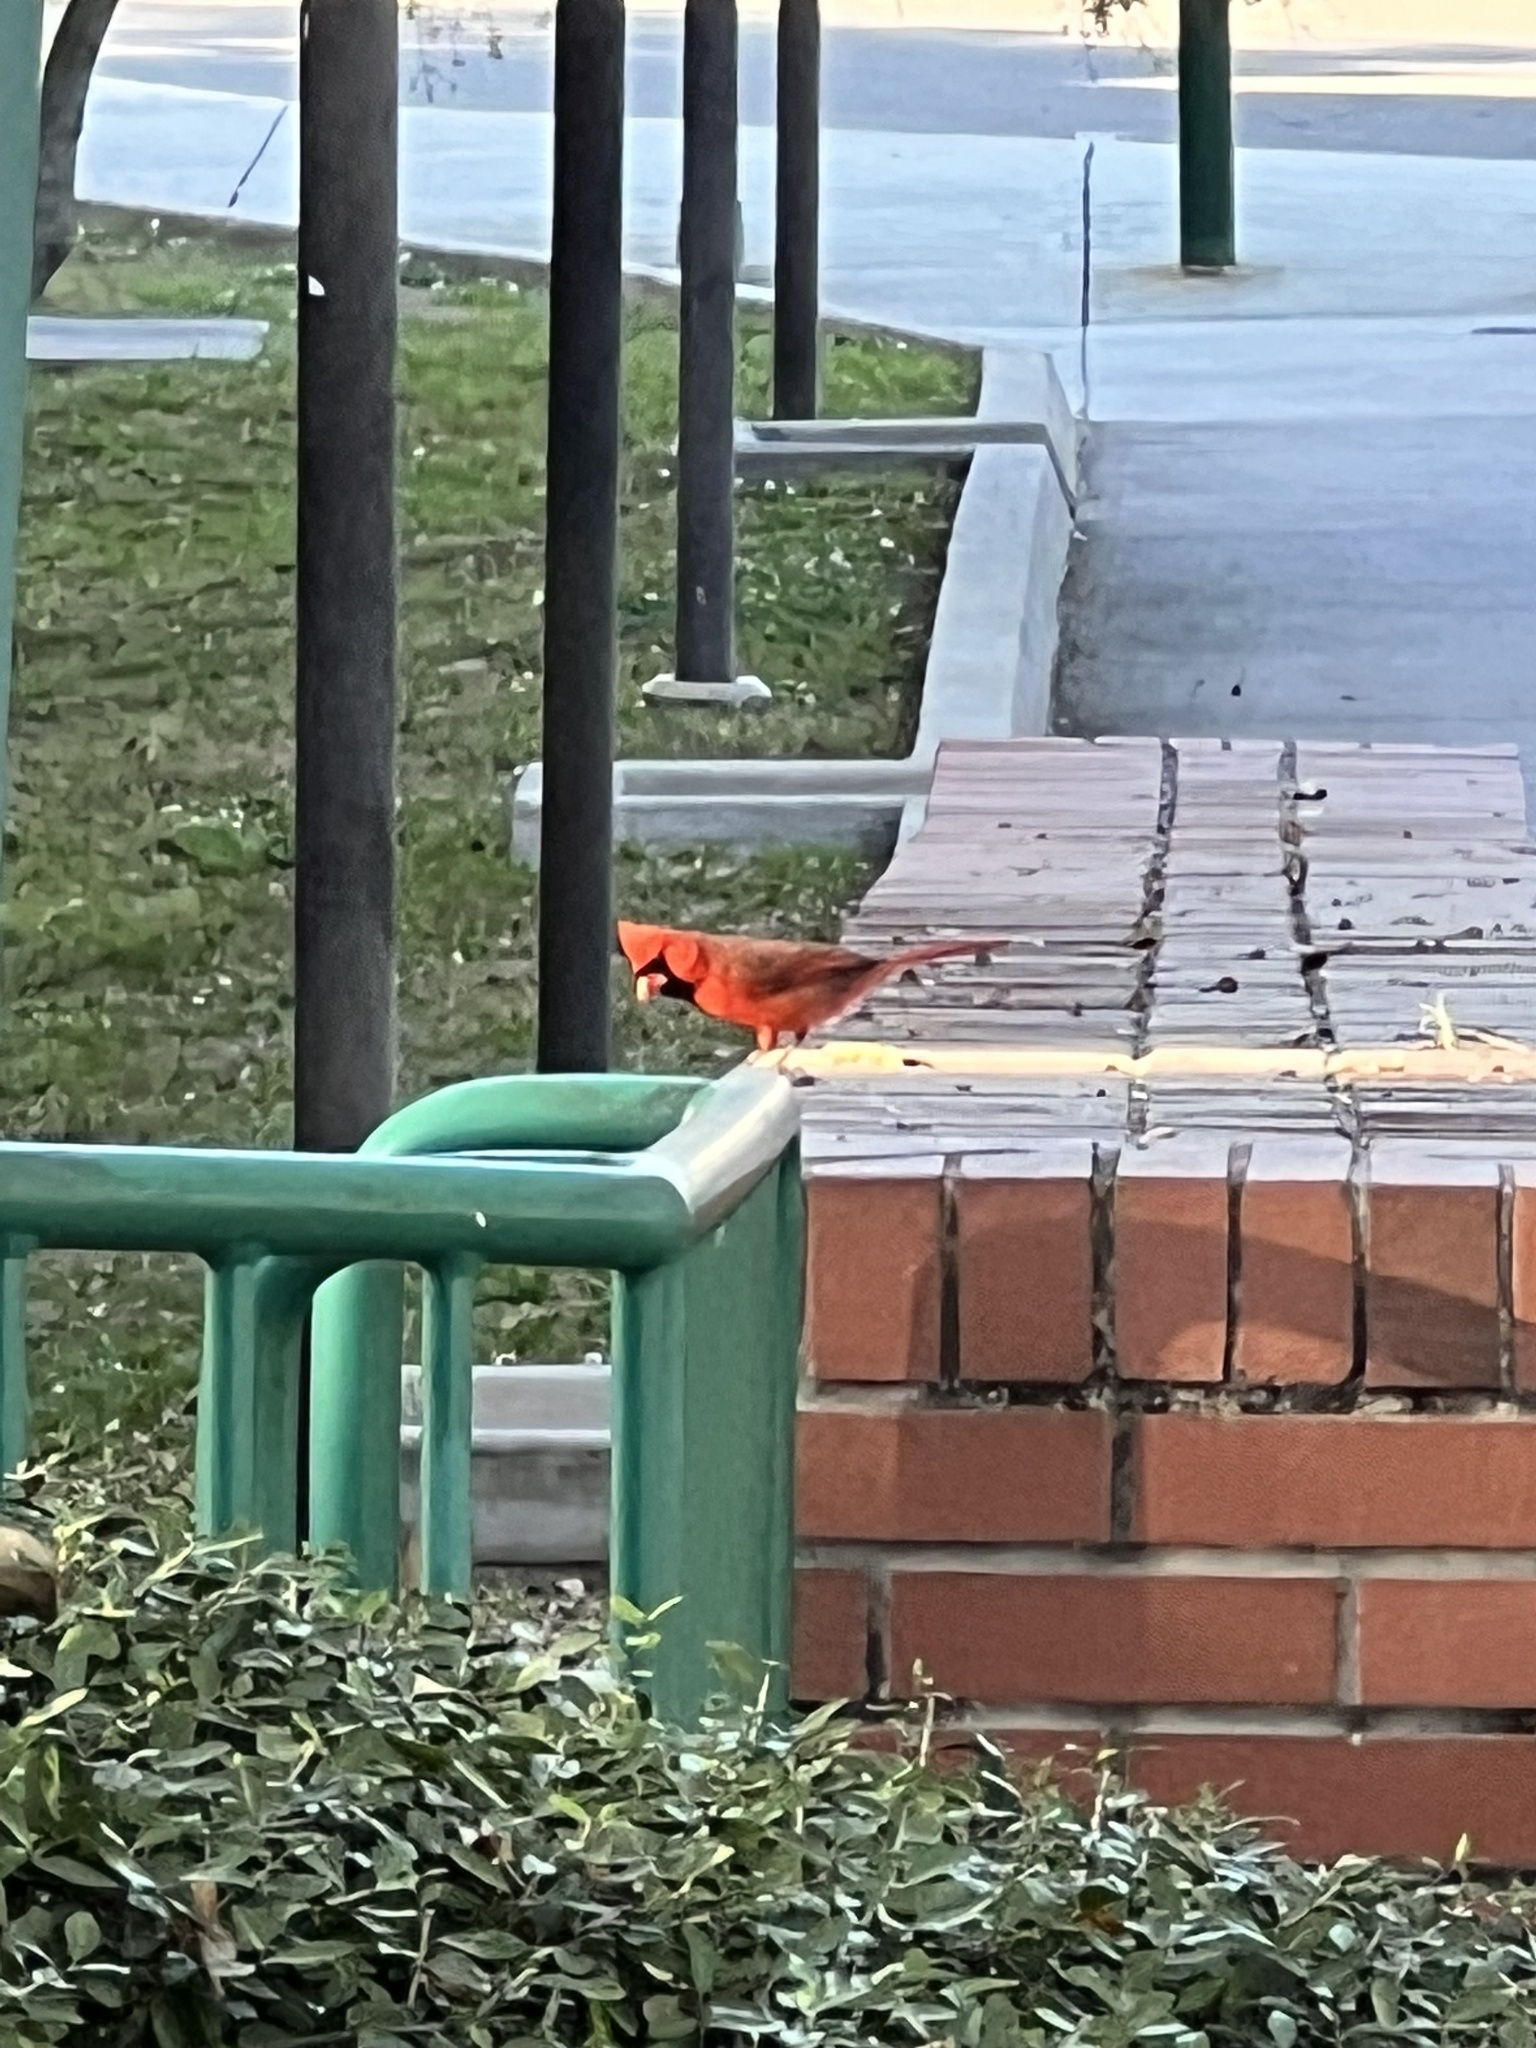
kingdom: Animalia
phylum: Chordata
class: Aves
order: Passeriformes
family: Cardinalidae
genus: Cardinalis
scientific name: Cardinalis cardinalis
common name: Northern cardinal
